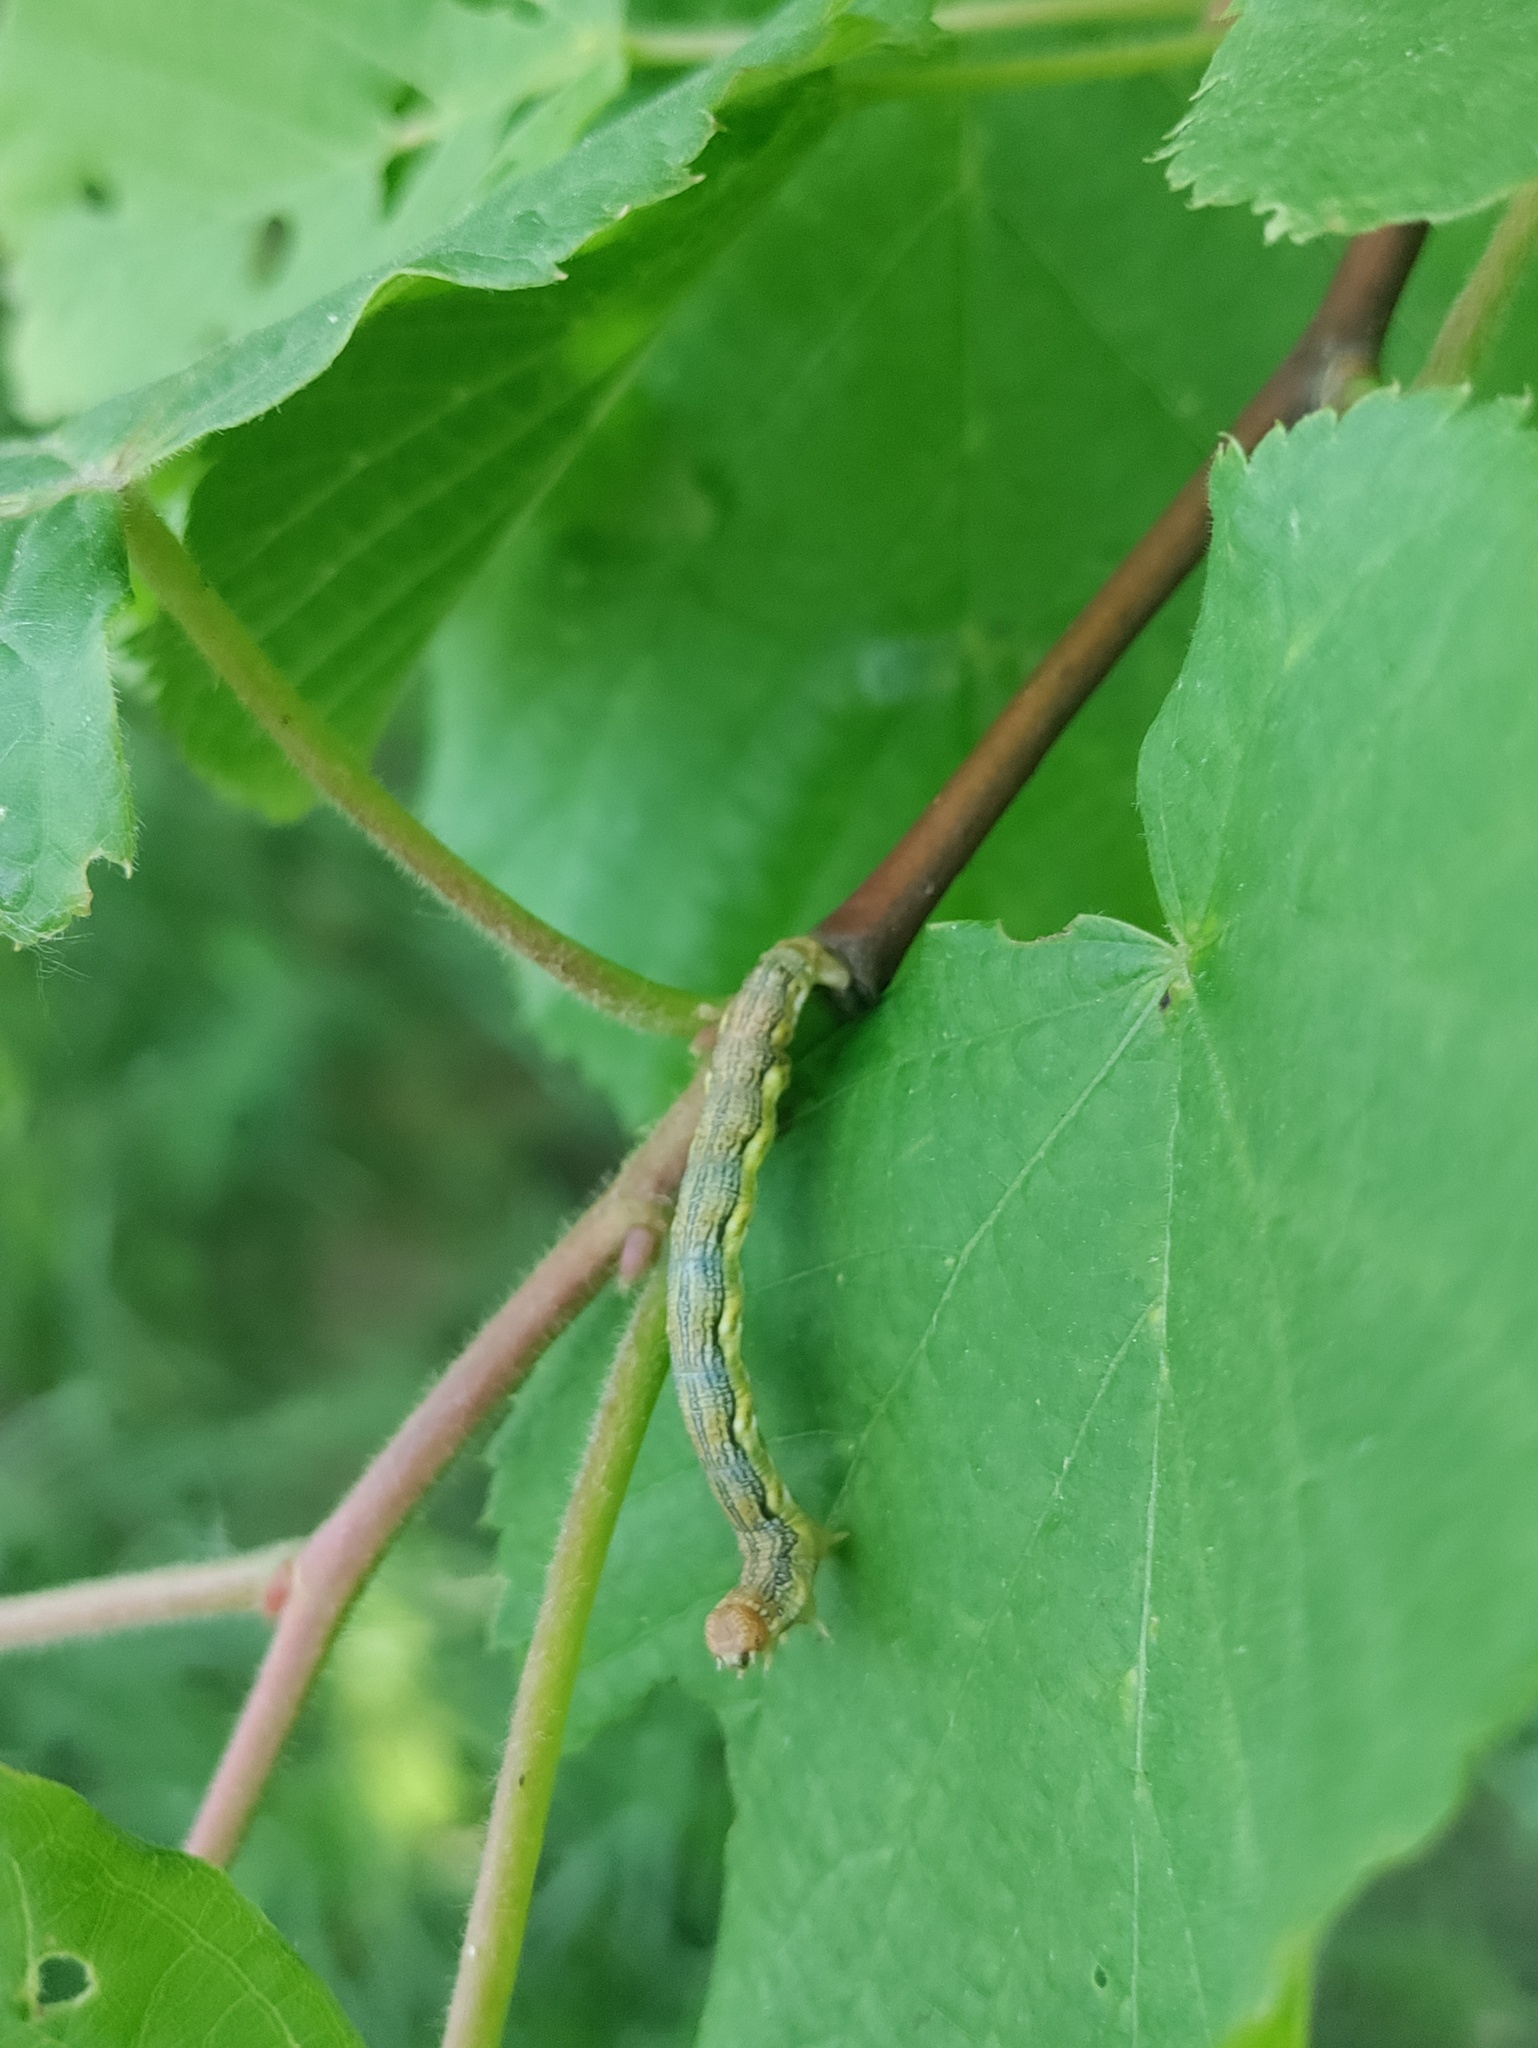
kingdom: Animalia
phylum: Arthropoda
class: Insecta
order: Lepidoptera
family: Geometridae
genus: Erannis
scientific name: Erannis defoliaria
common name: Mottled umber
